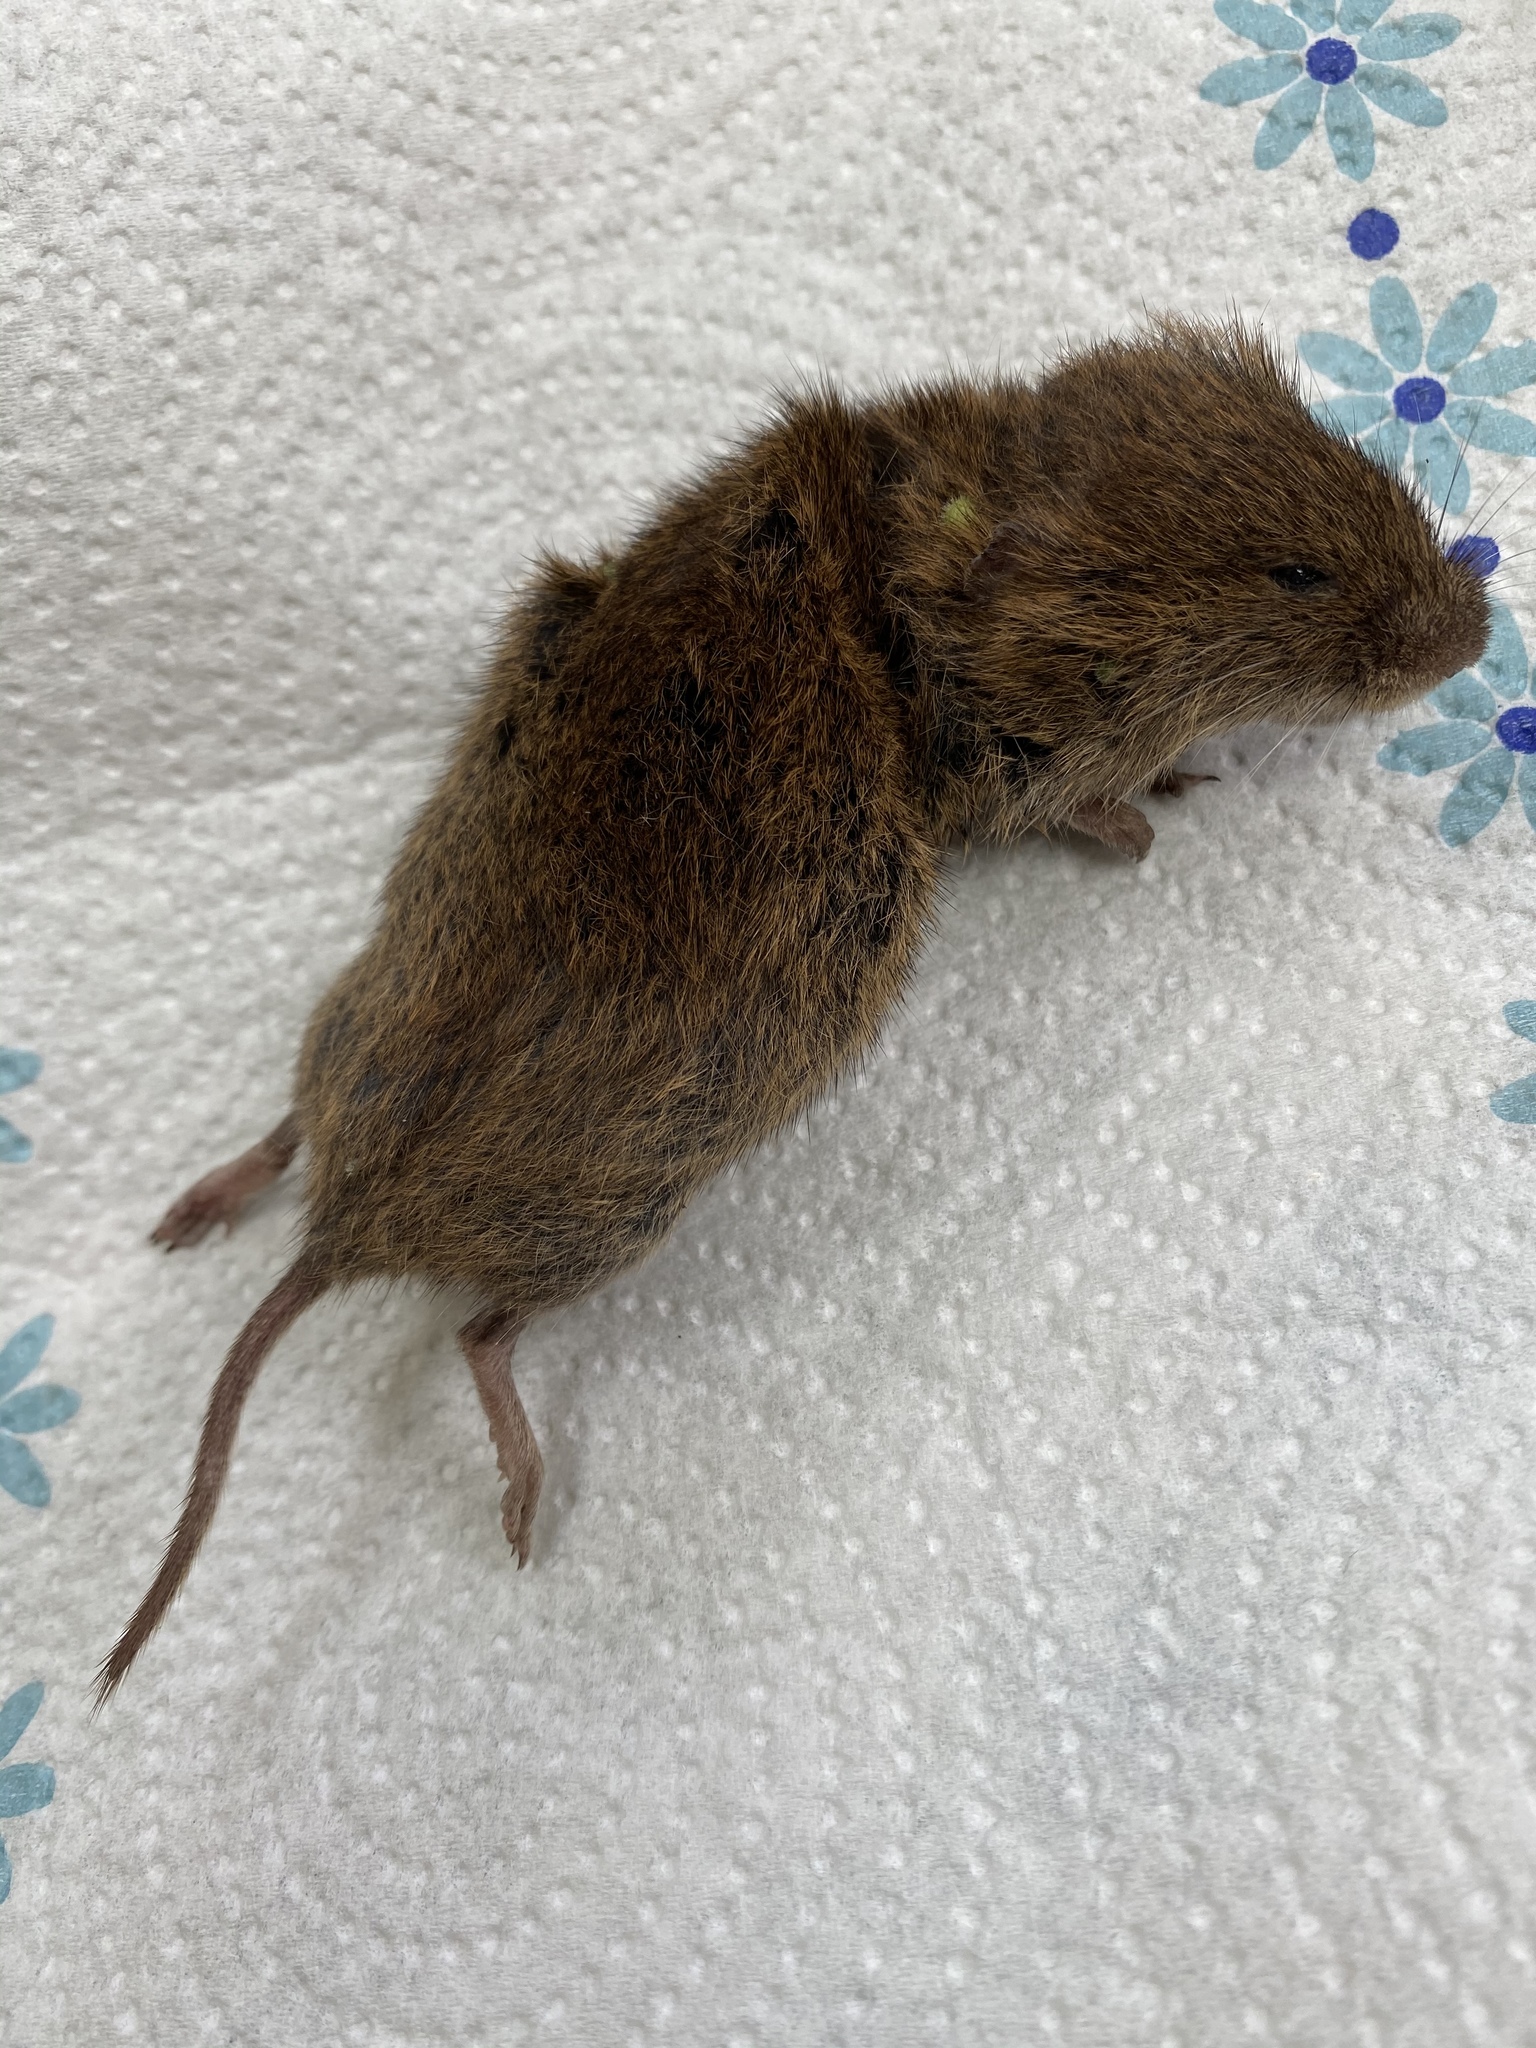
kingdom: Animalia
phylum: Chordata
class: Mammalia
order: Rodentia
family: Cricetidae
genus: Microtus
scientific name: Microtus agrestis
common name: Field vole
